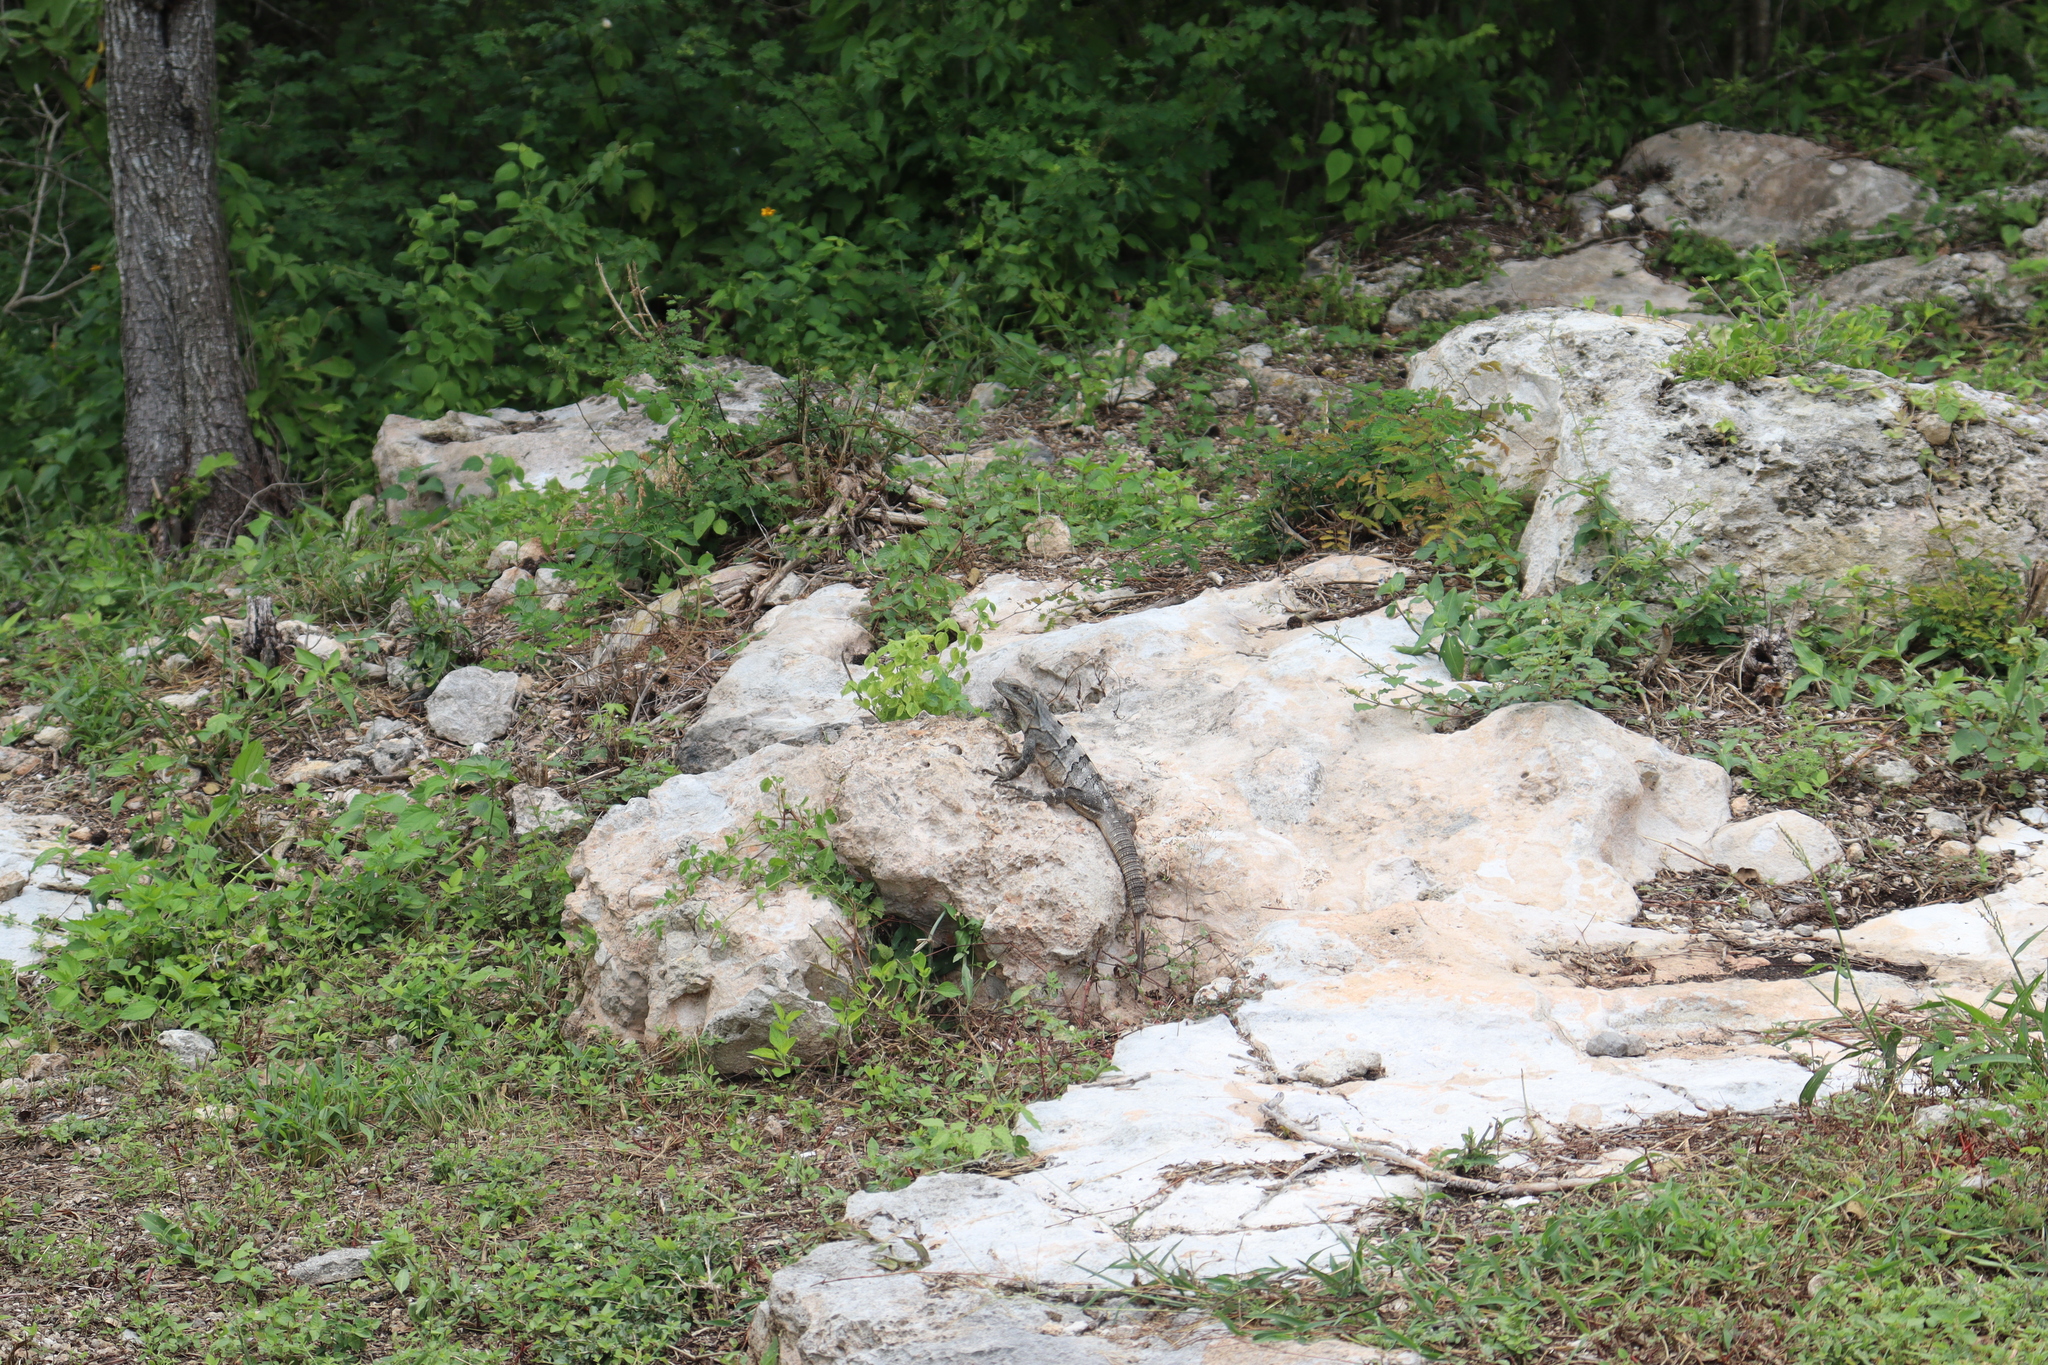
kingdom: Animalia
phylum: Chordata
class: Squamata
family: Iguanidae
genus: Ctenosaura
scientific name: Ctenosaura similis
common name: Black spiny-tailed iguana
